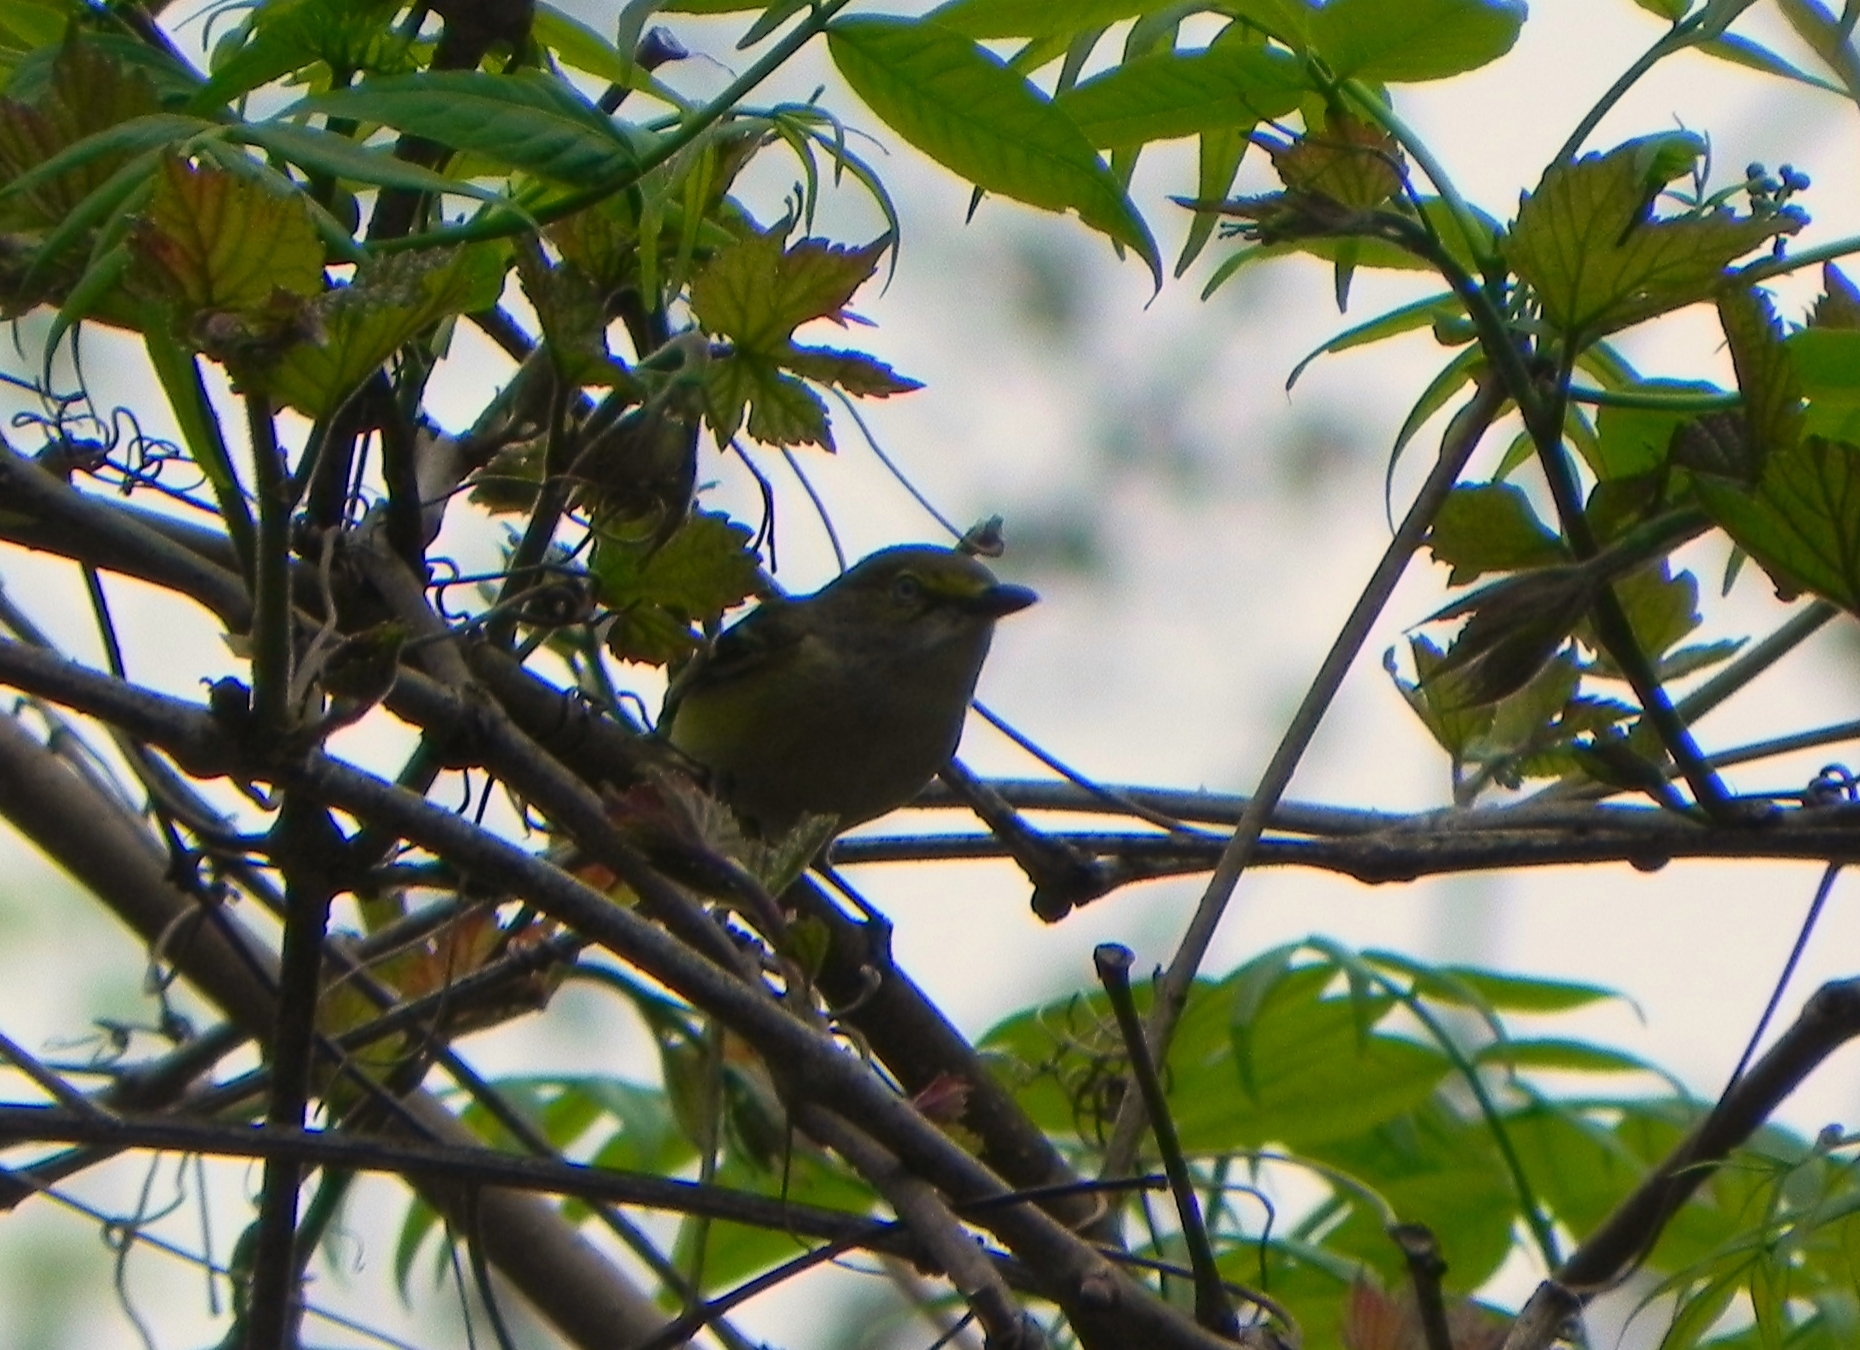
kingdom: Animalia
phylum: Chordata
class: Aves
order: Passeriformes
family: Vireonidae
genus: Vireo
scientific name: Vireo griseus
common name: White-eyed vireo
